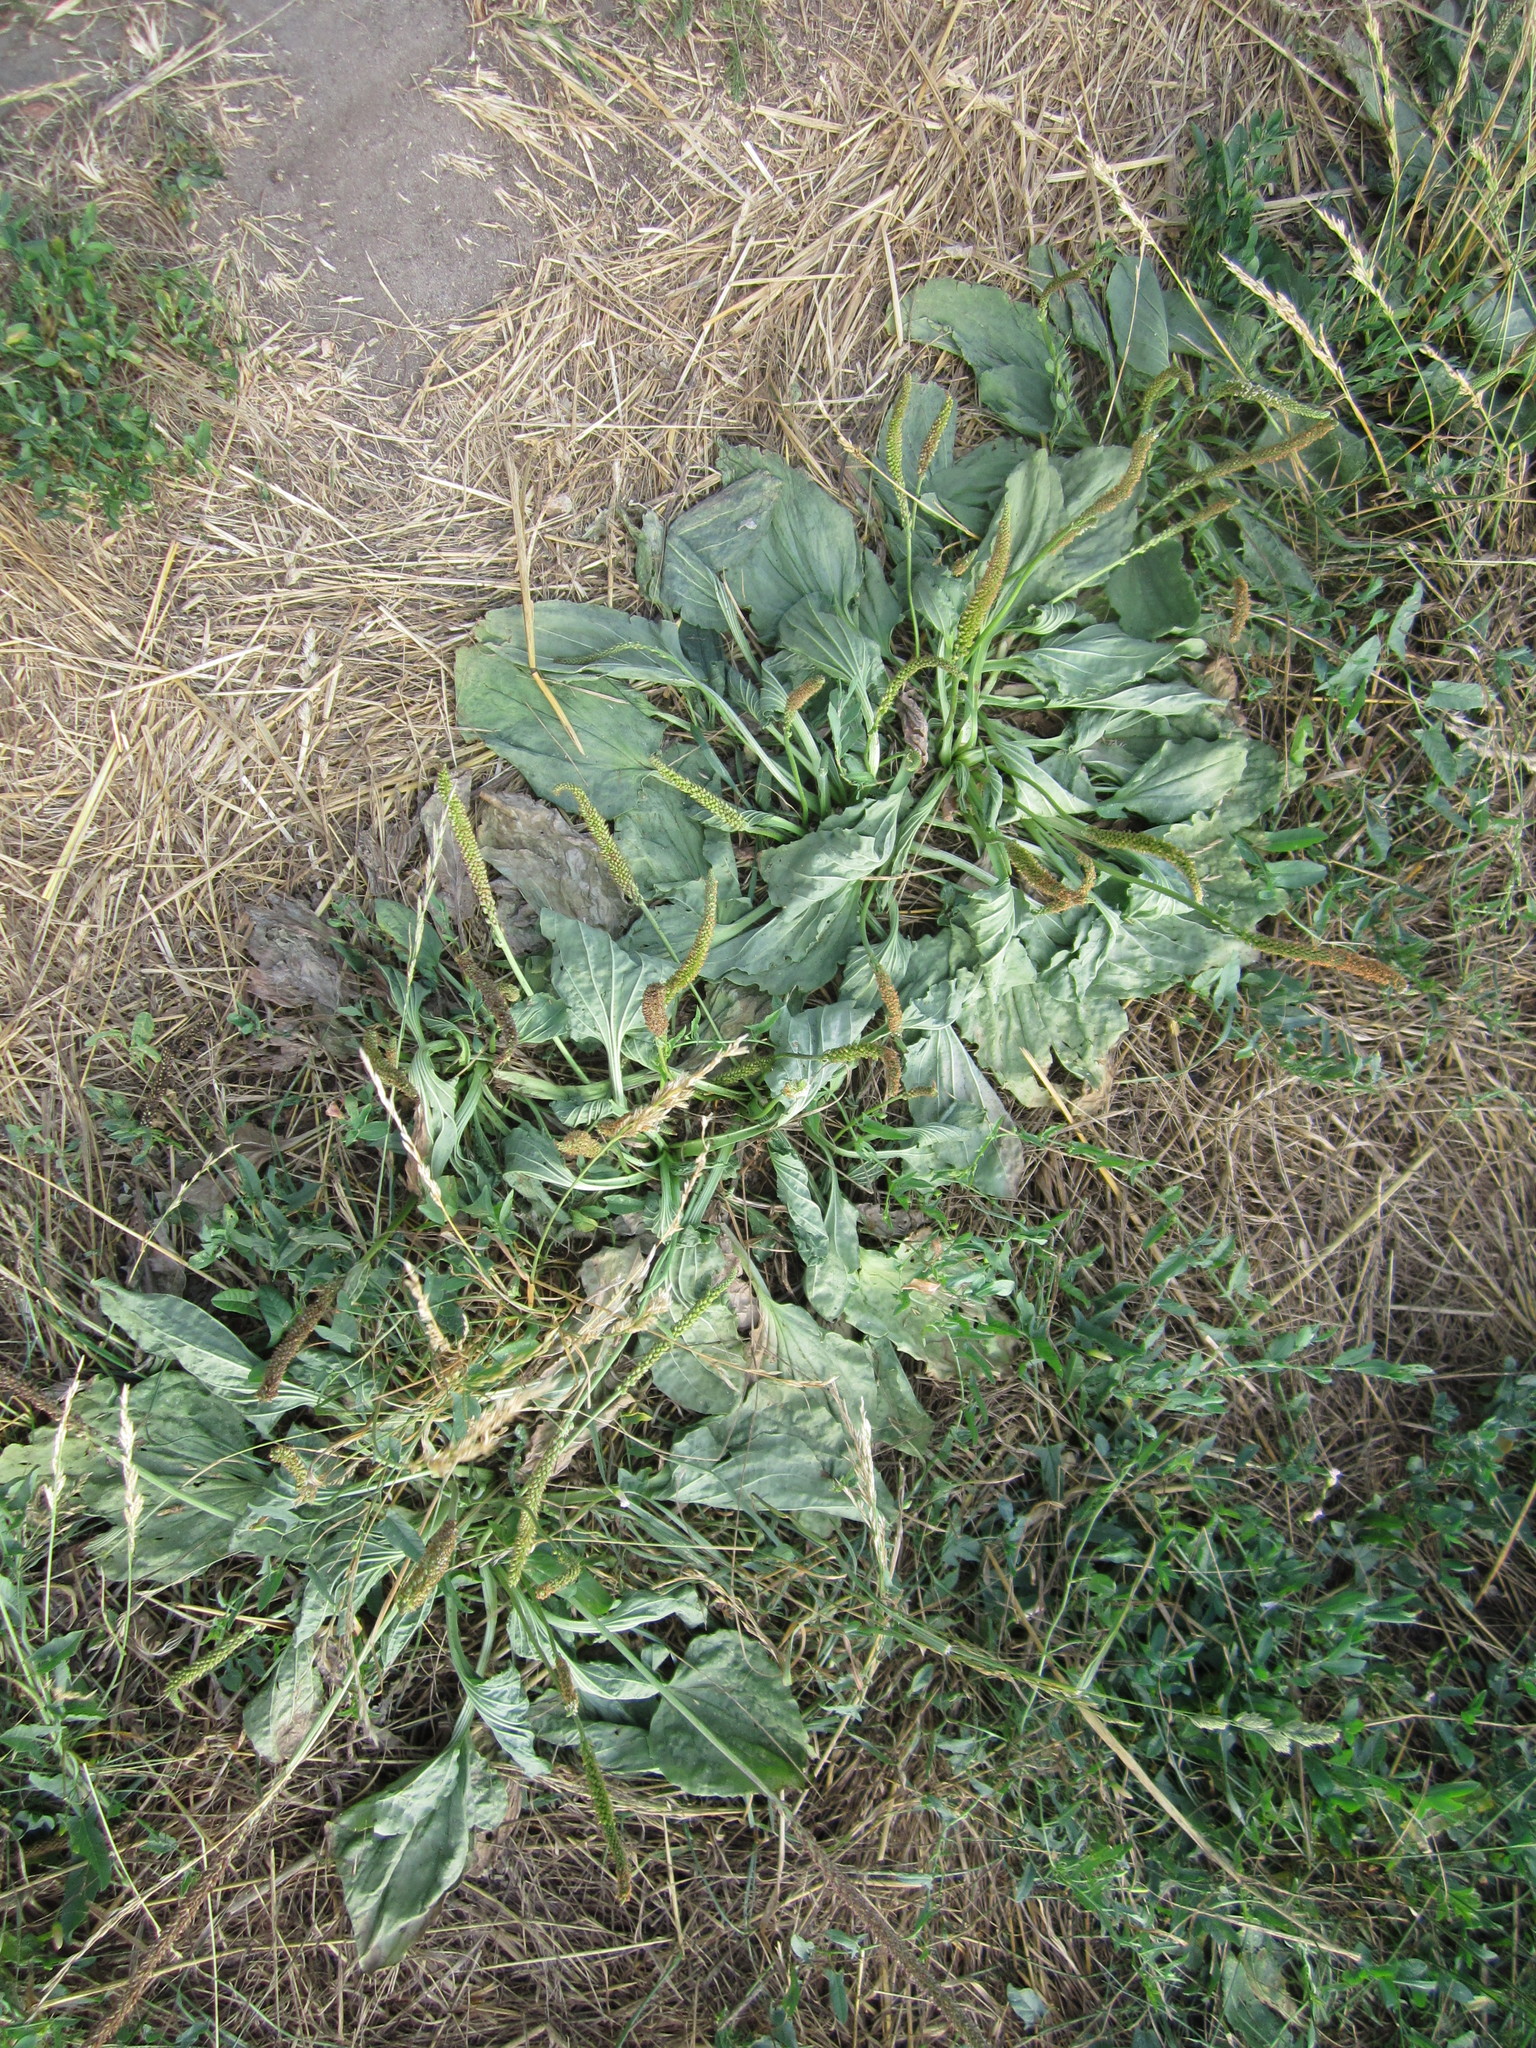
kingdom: Plantae
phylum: Tracheophyta
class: Magnoliopsida
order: Lamiales
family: Plantaginaceae
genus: Plantago
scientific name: Plantago major
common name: Common plantain
